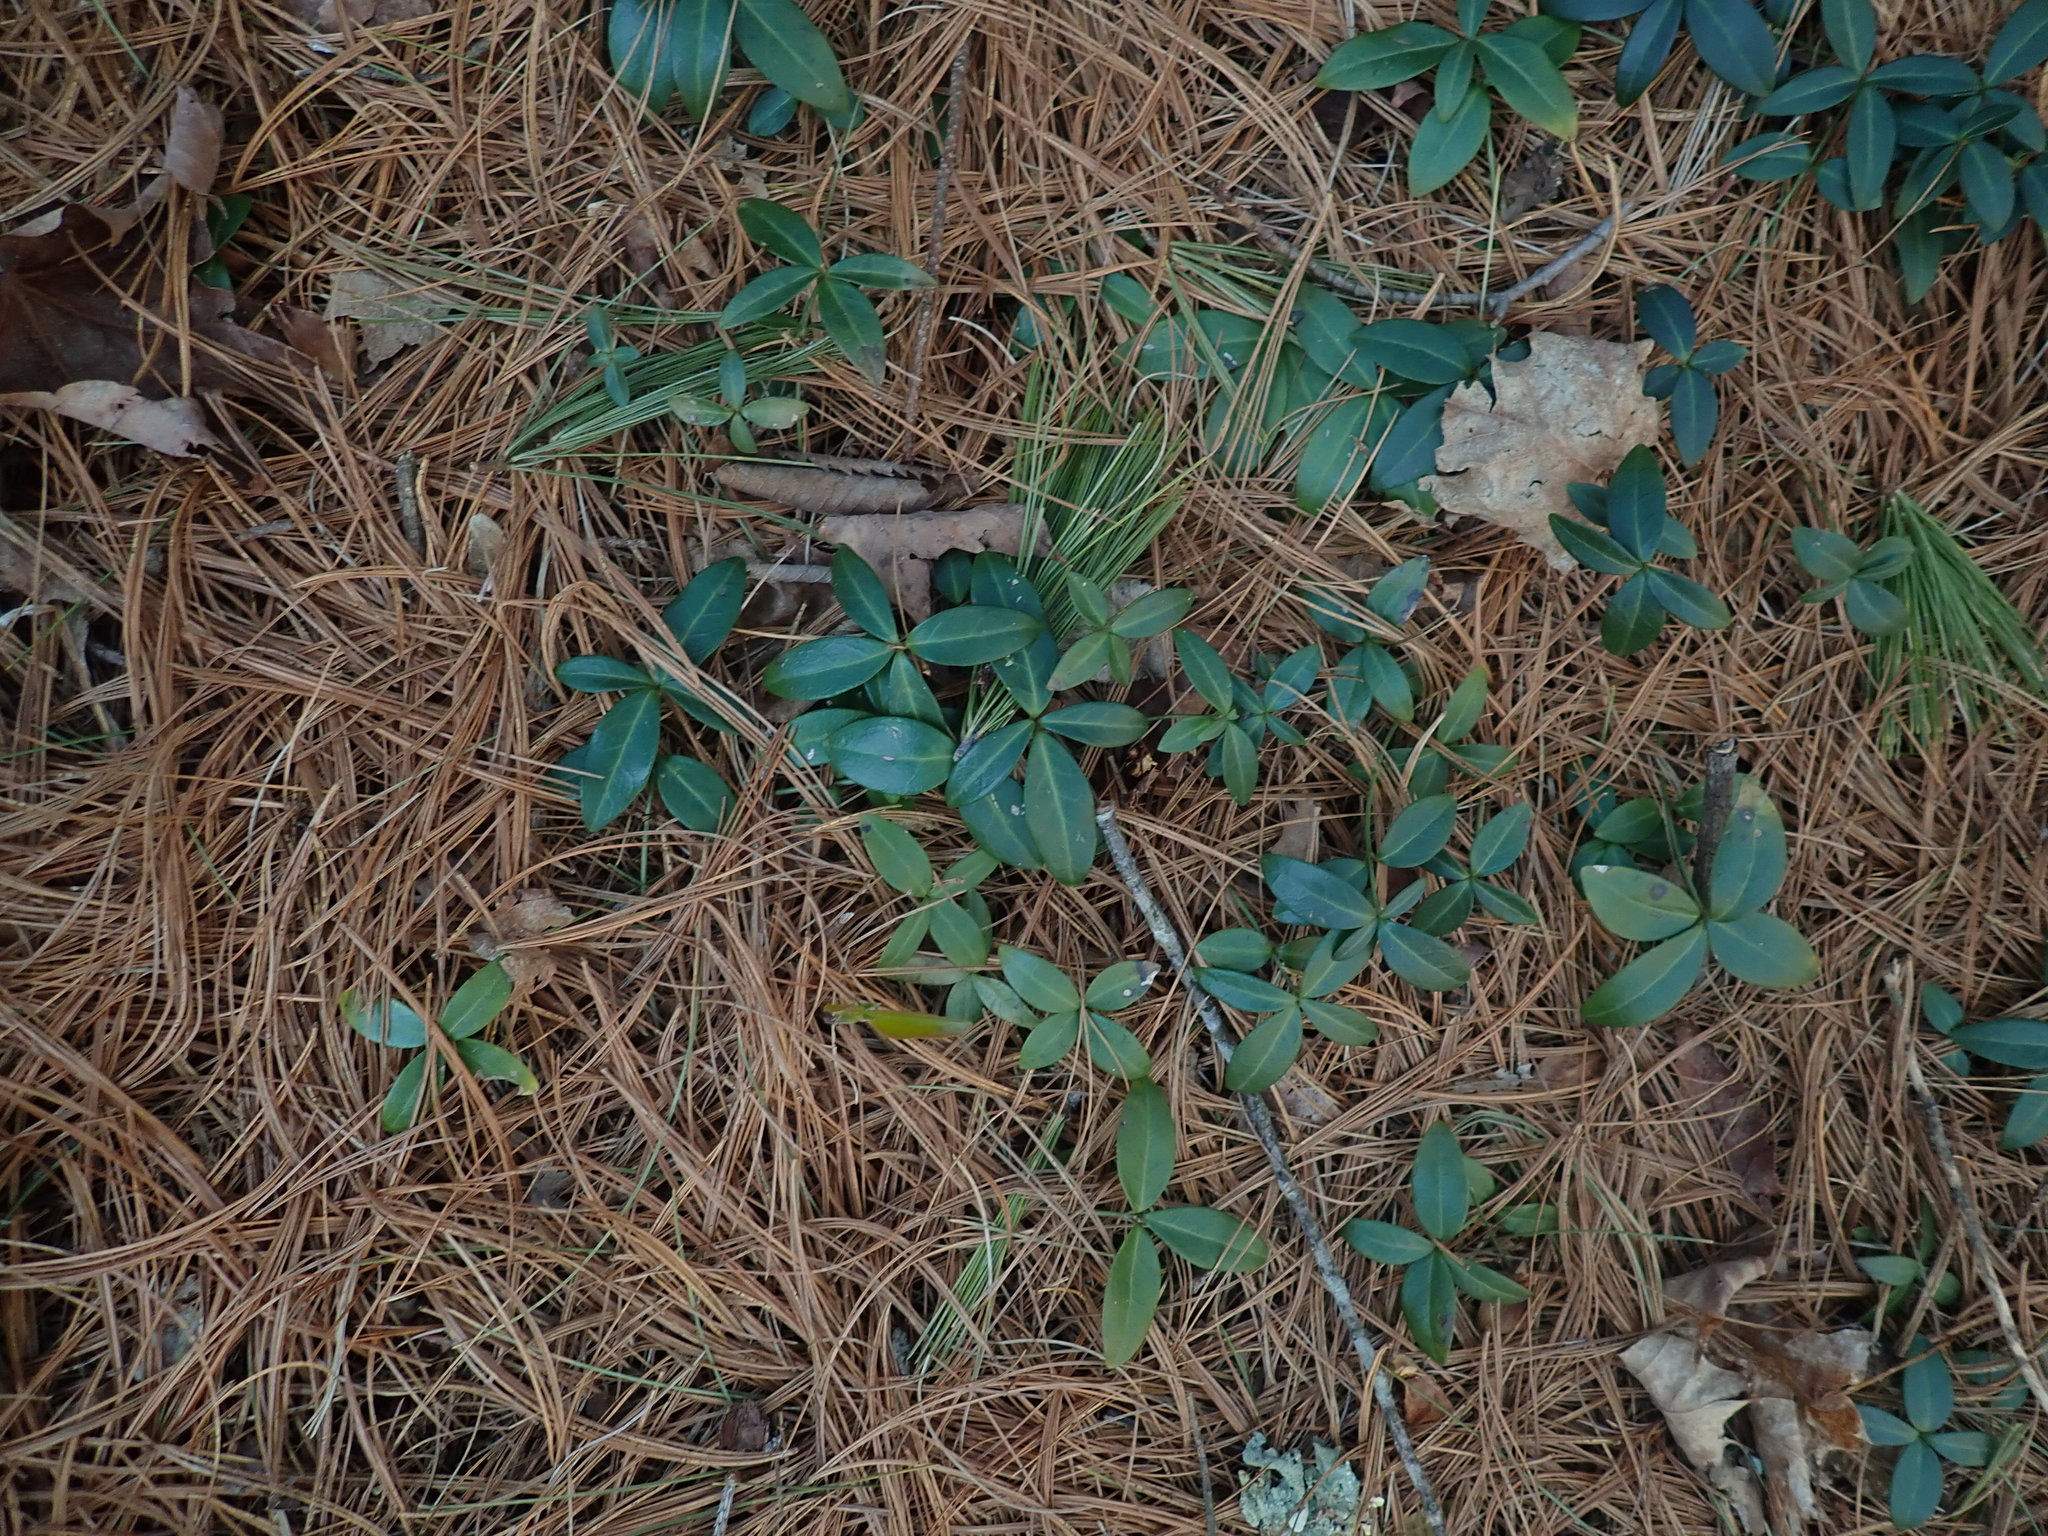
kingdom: Plantae
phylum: Tracheophyta
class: Magnoliopsida
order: Gentianales
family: Apocynaceae
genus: Vinca
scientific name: Vinca minor
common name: Lesser periwinkle
